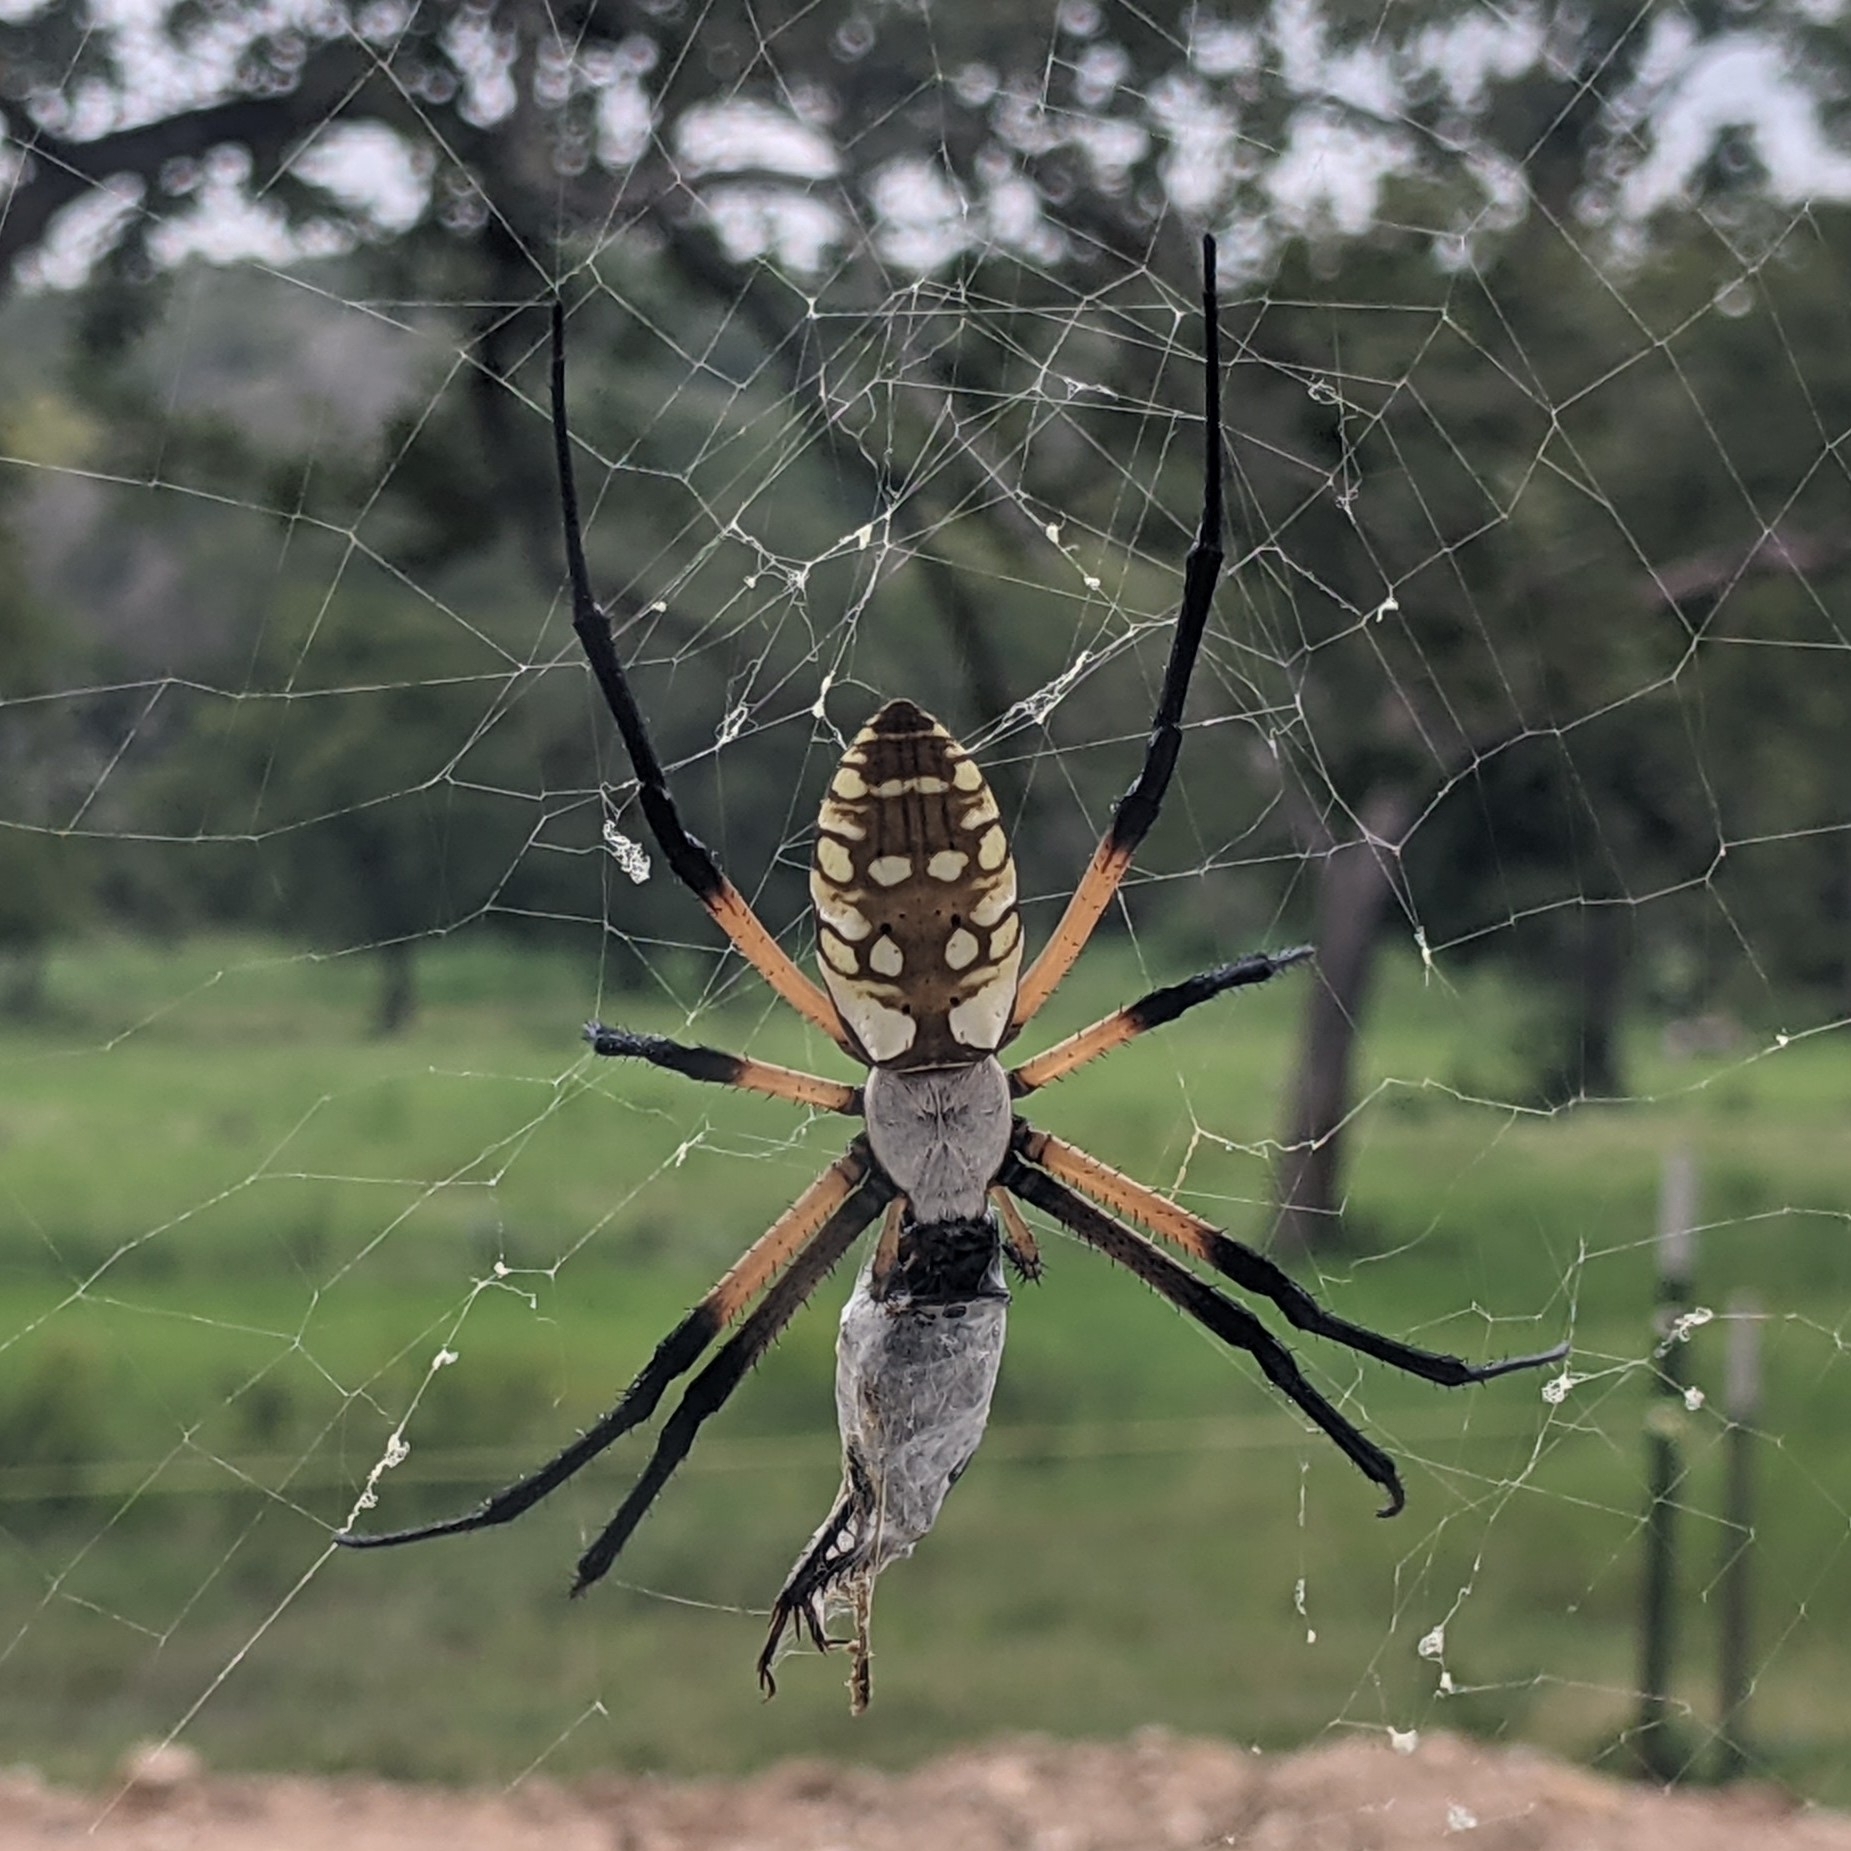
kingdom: Animalia
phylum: Arthropoda
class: Arachnida
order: Araneae
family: Araneidae
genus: Argiope
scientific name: Argiope aurantia
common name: Orb weavers
